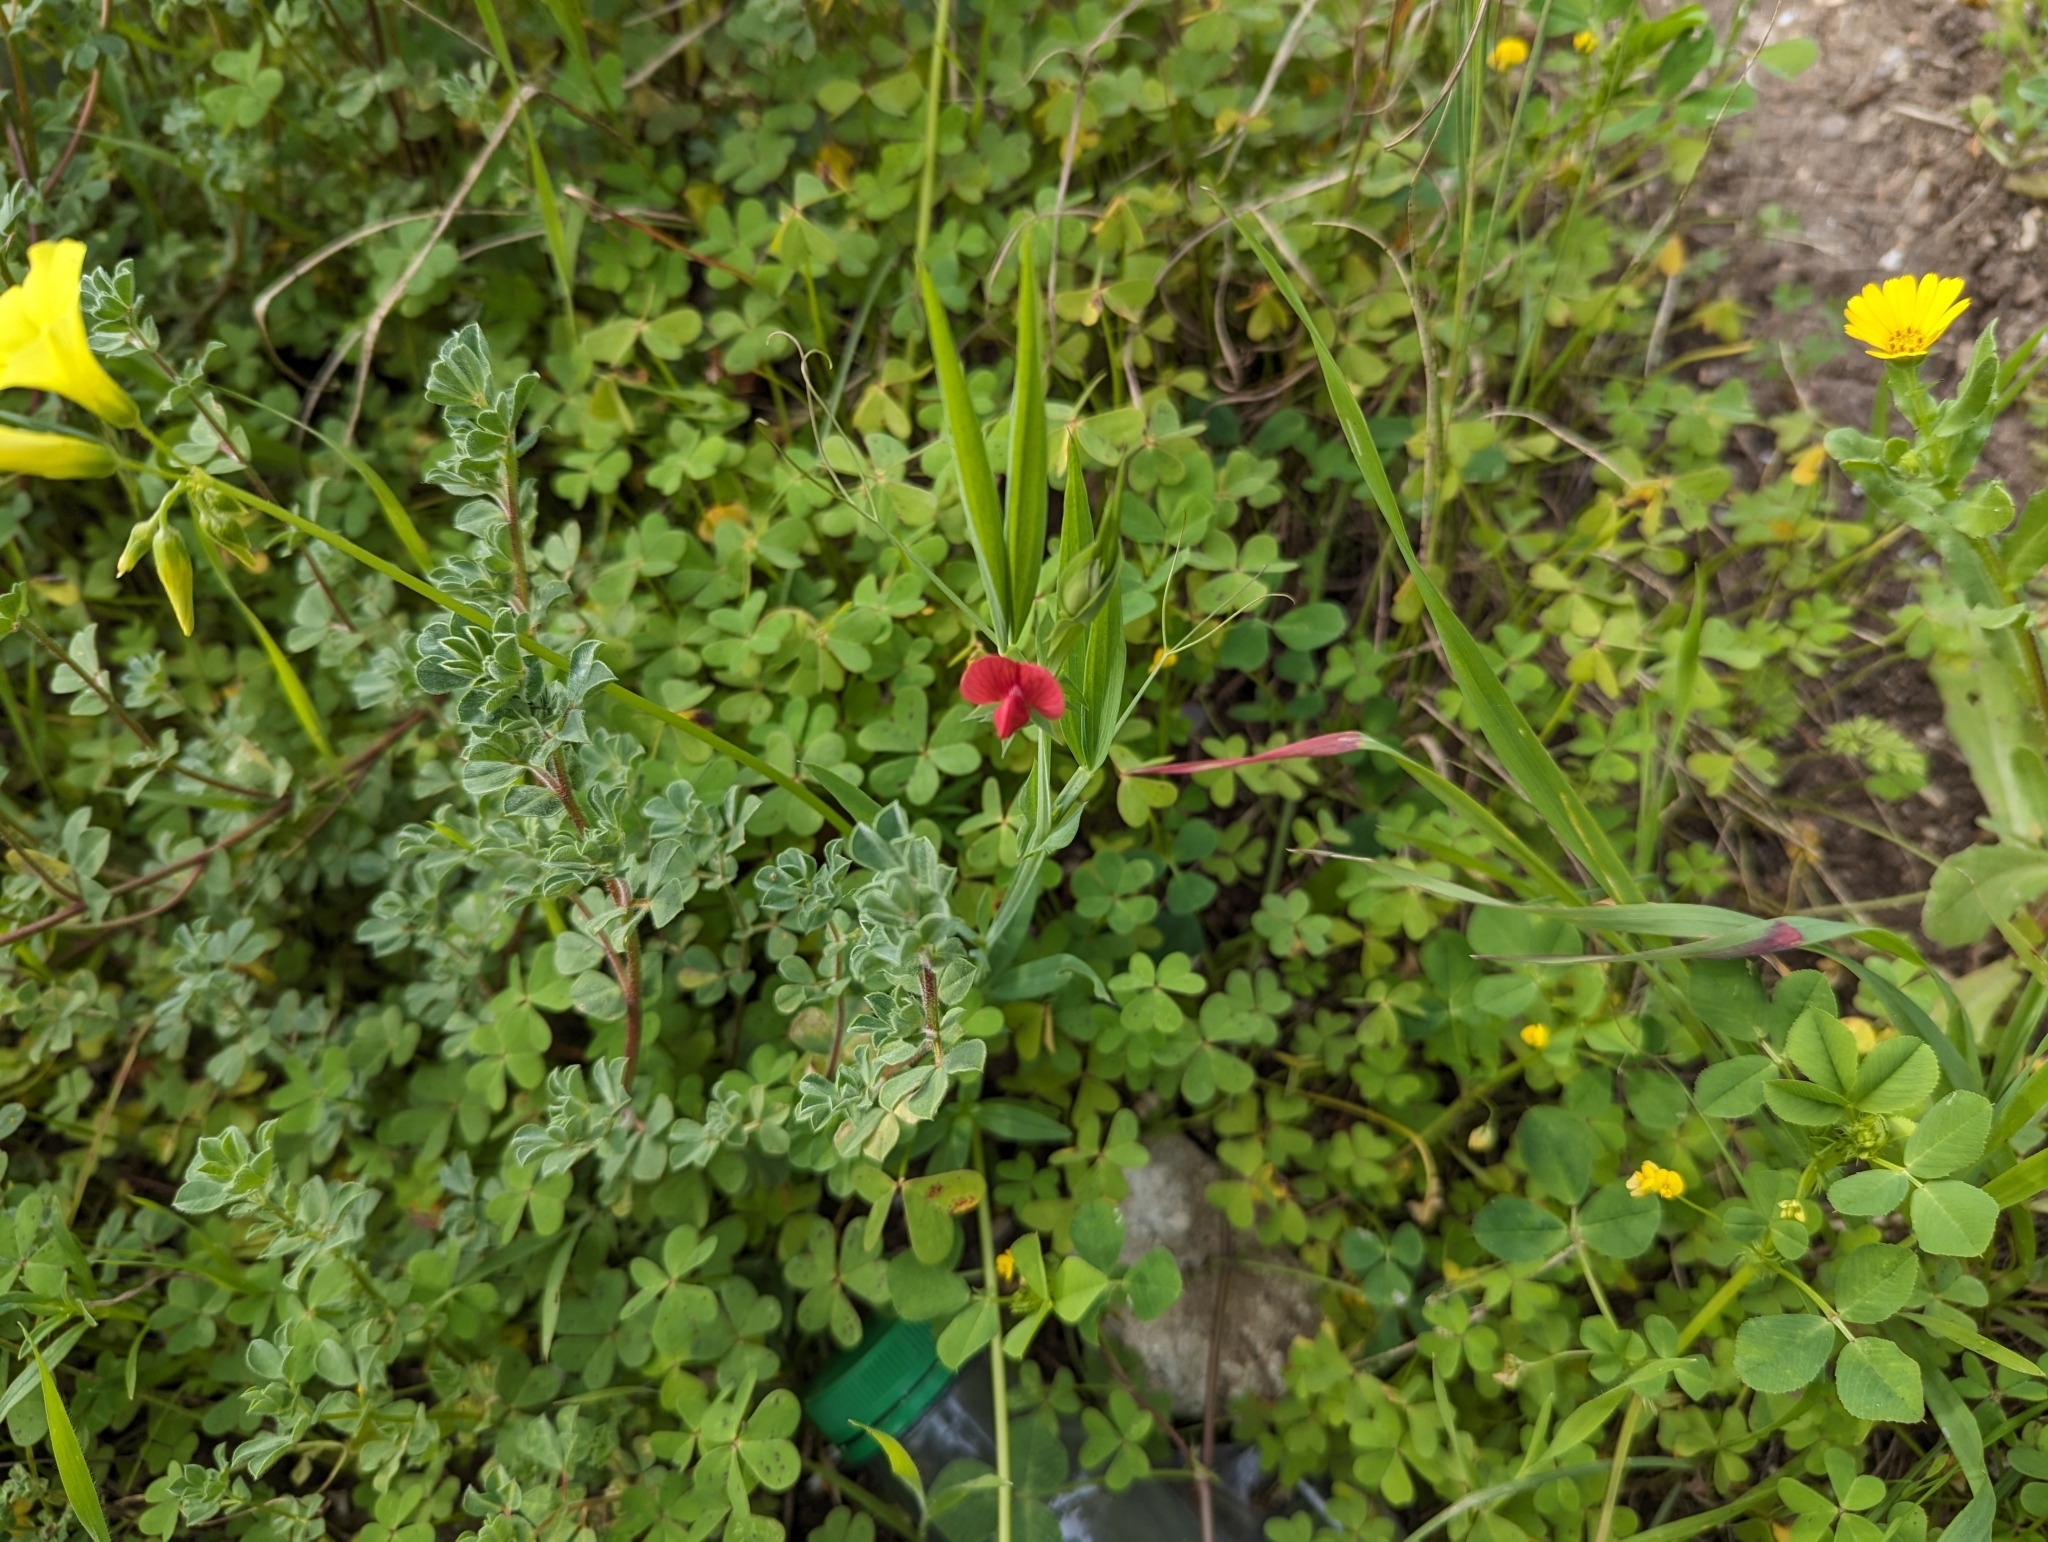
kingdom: Plantae
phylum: Tracheophyta
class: Magnoliopsida
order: Fabales
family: Fabaceae
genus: Lathyrus
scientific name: Lathyrus cicera
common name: Red vetchling
